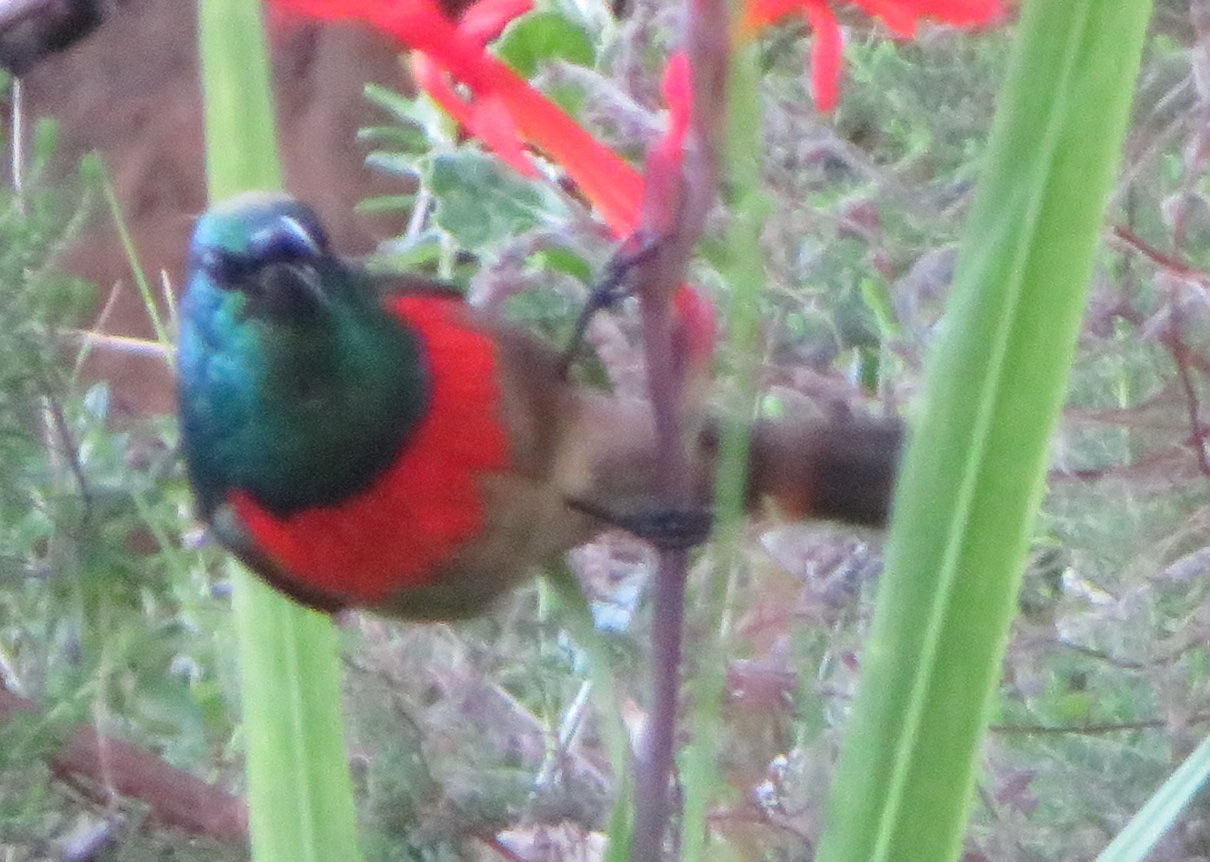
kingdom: Animalia
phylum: Chordata
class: Aves
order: Passeriformes
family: Nectariniidae
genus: Cinnyris
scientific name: Cinnyris afer
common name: Greater double-collared sunbird
